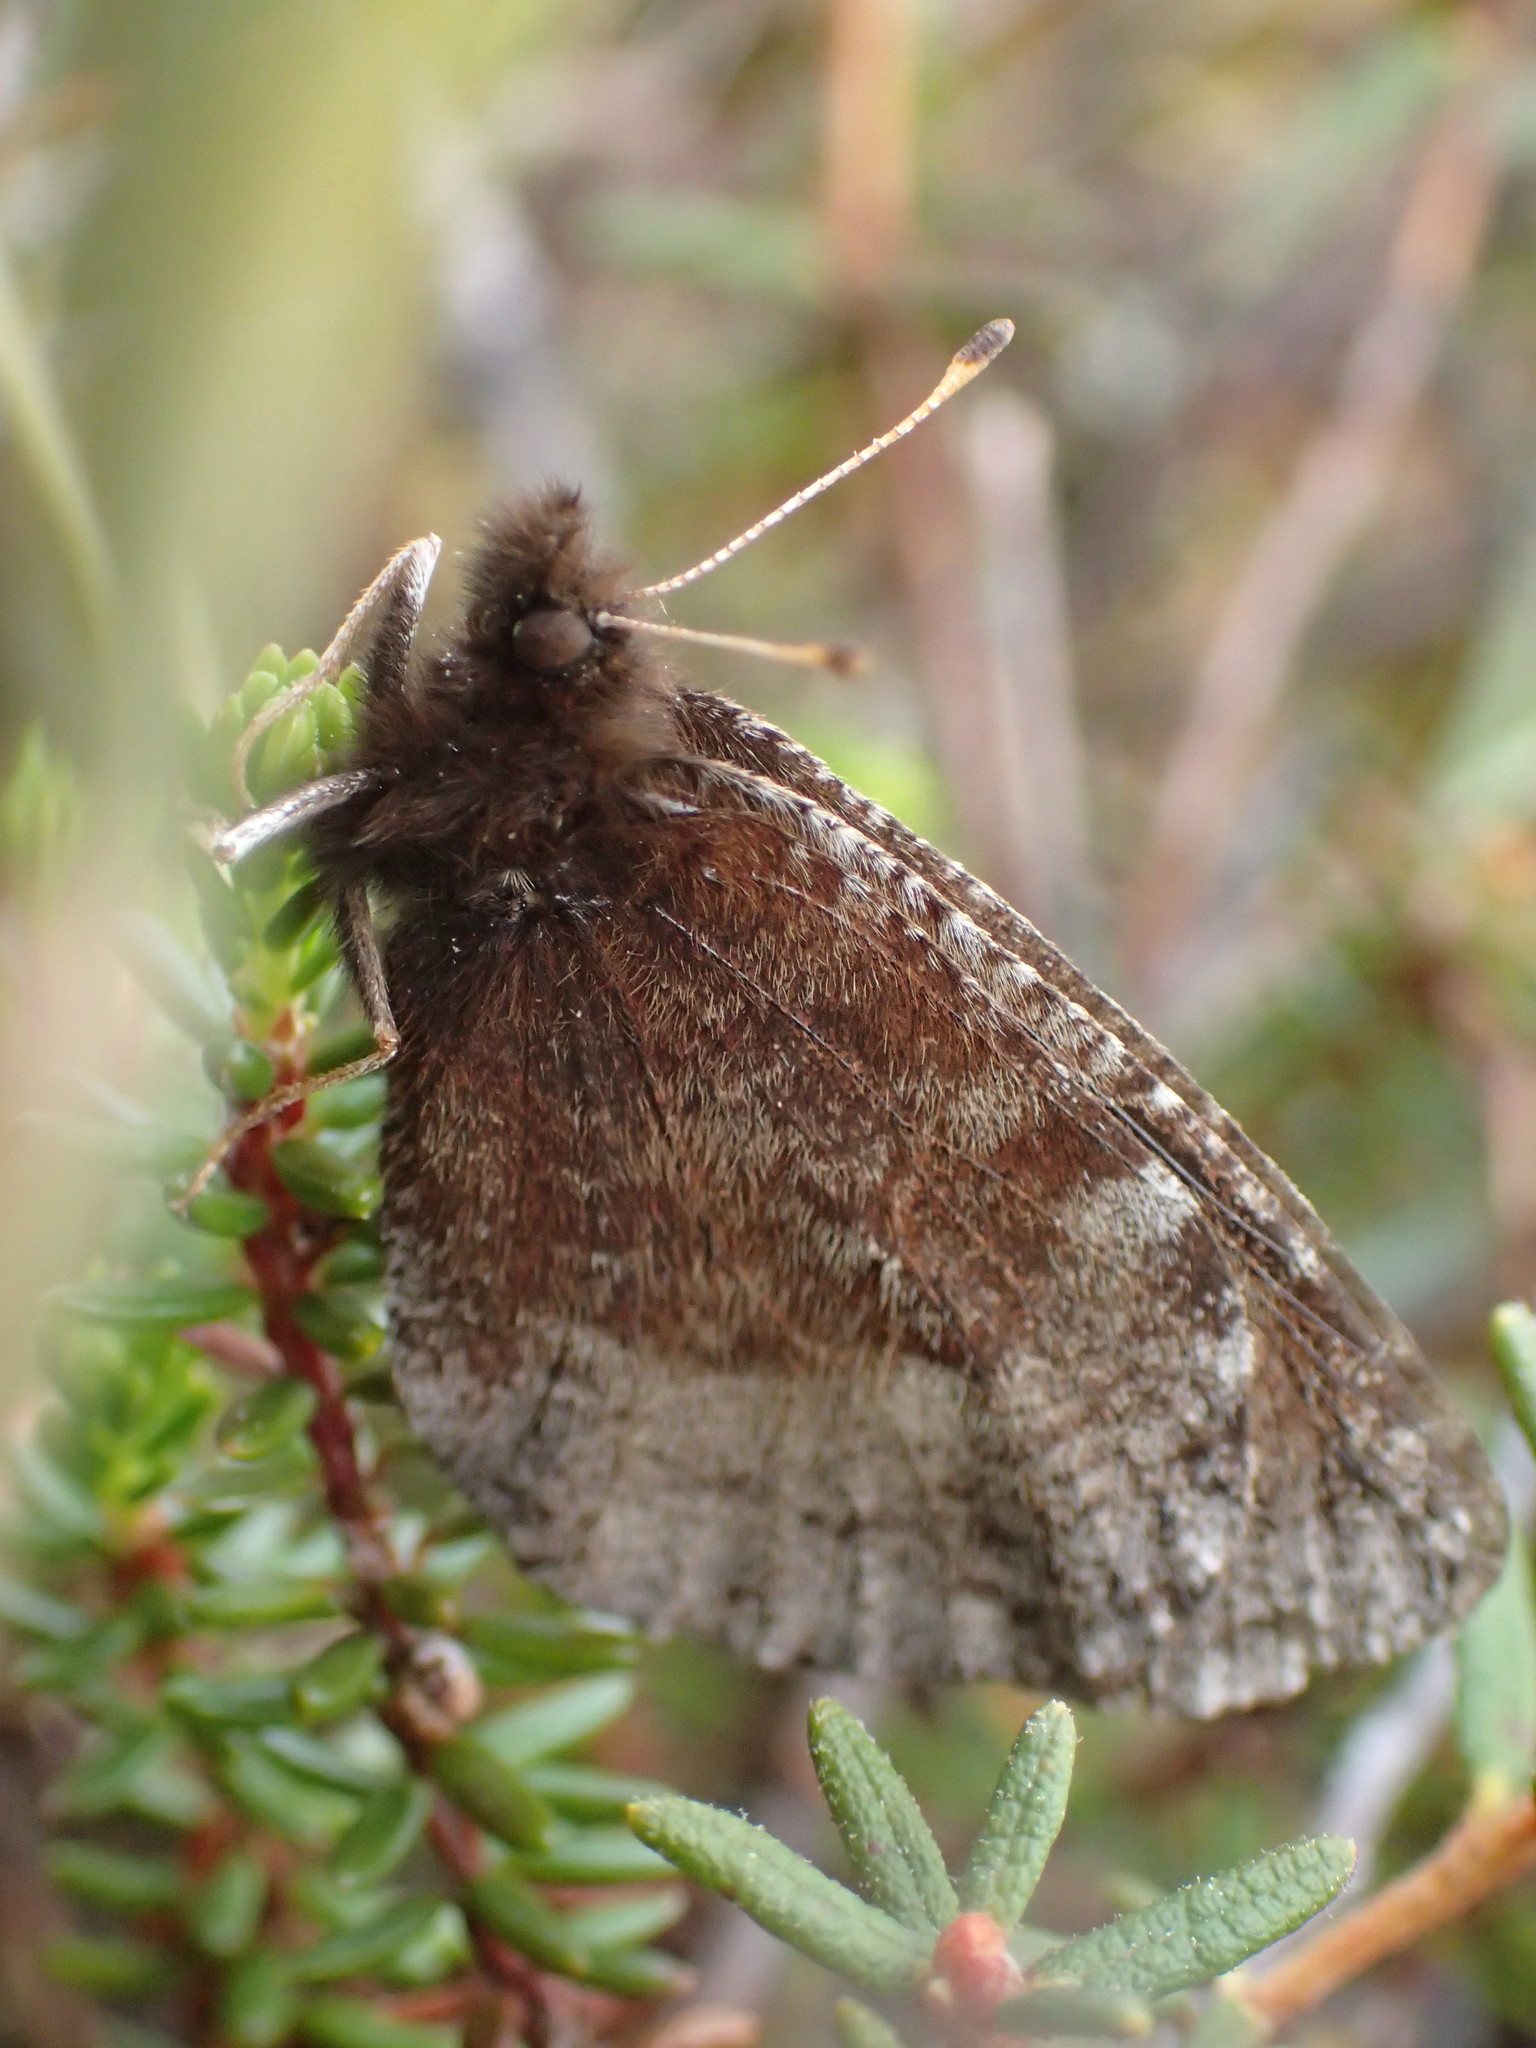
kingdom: Animalia
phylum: Arthropoda
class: Insecta
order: Lepidoptera
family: Nymphalidae
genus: Erebia
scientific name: Erebia discoidalis
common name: Red-disked alpine
